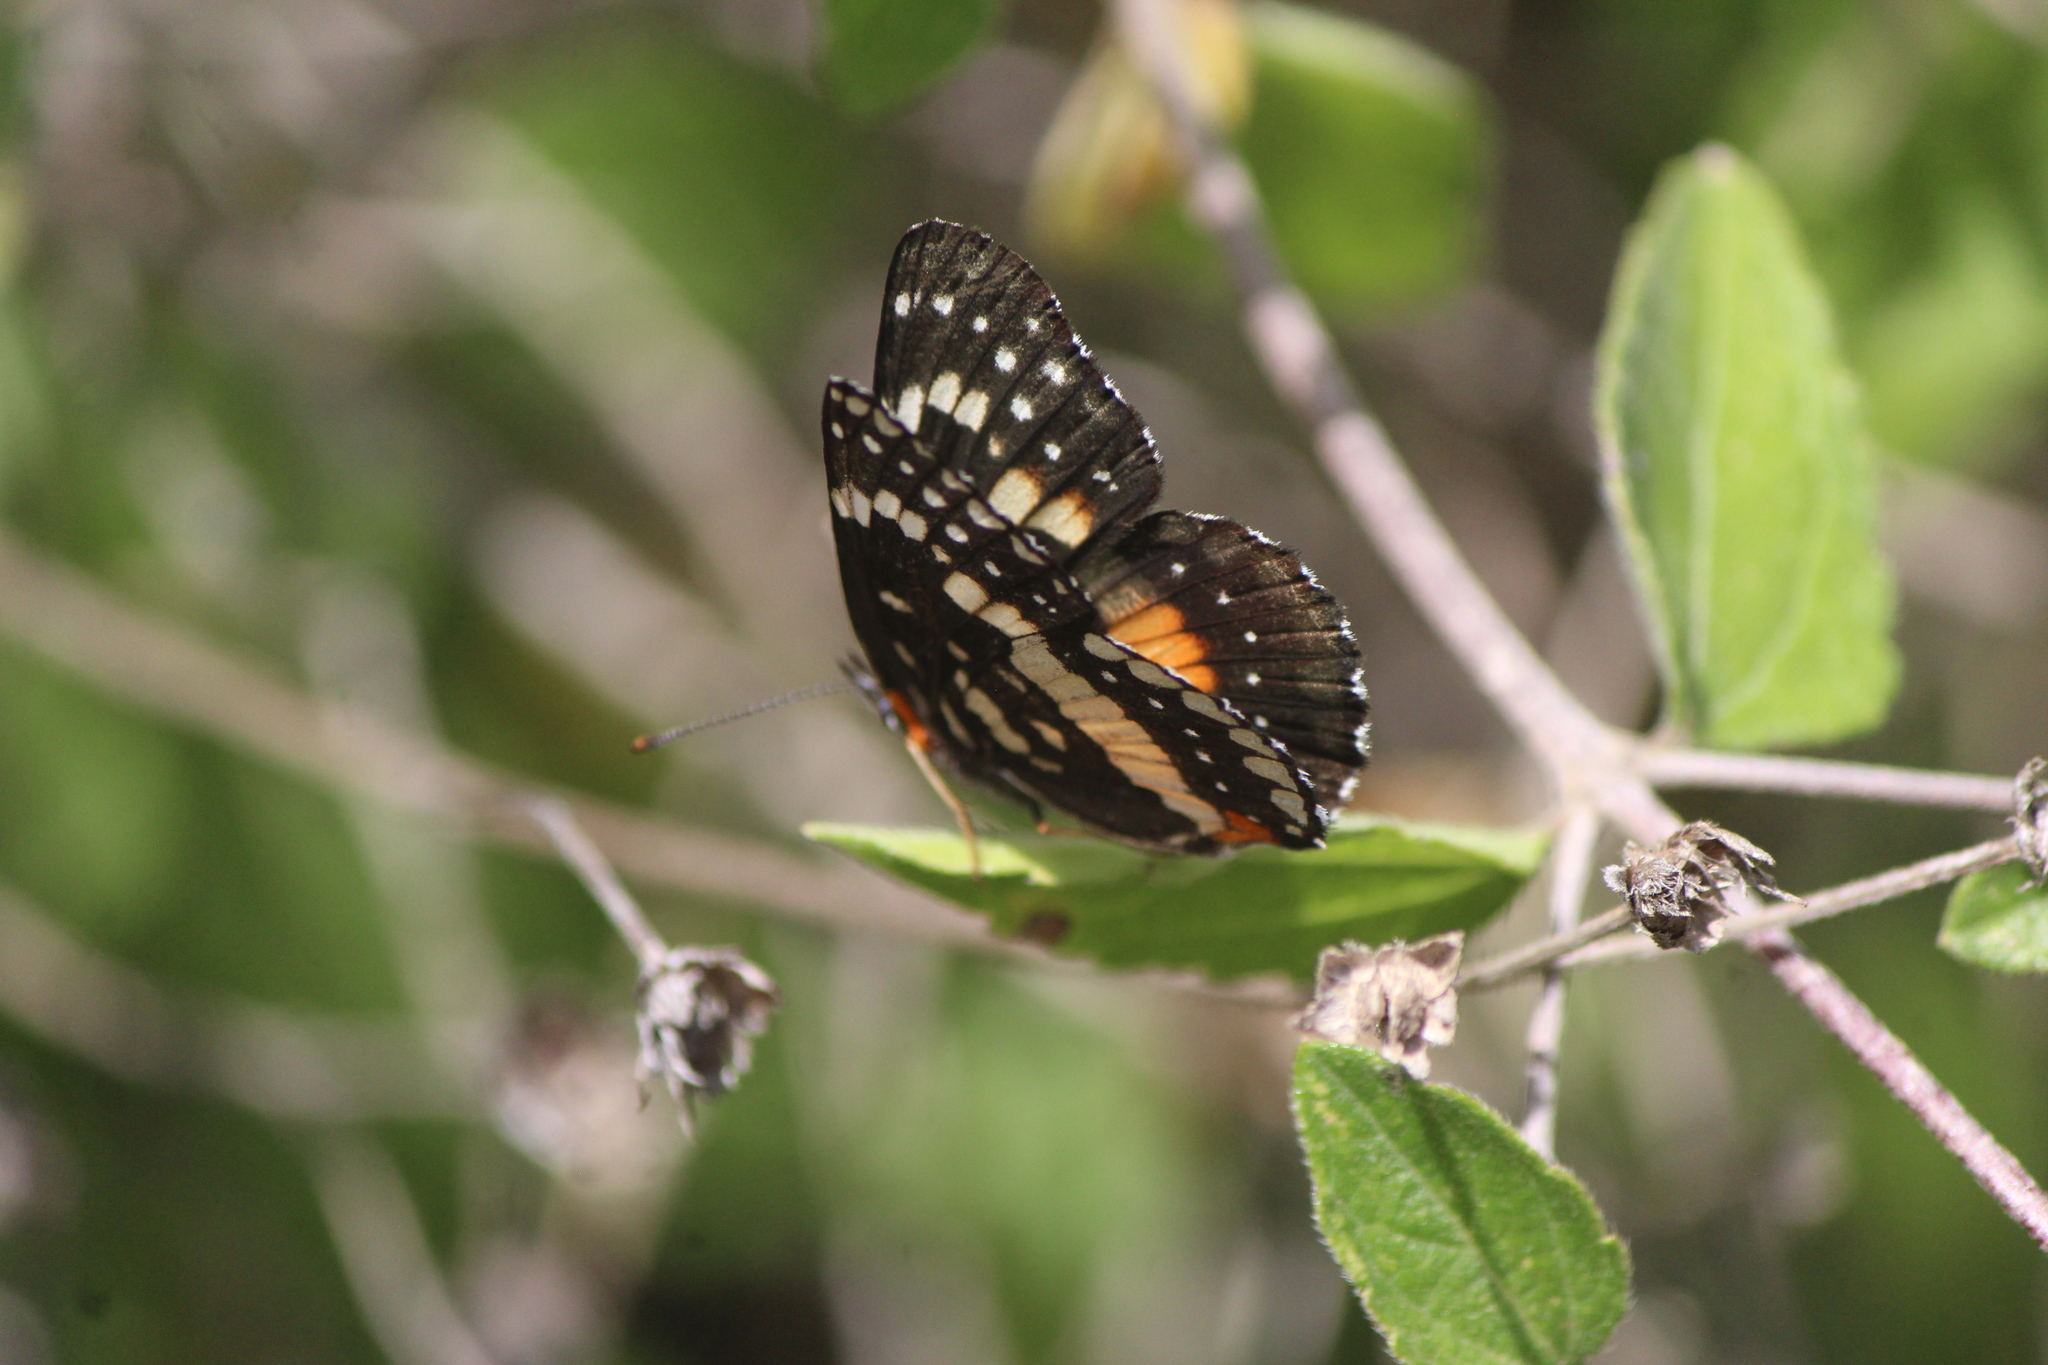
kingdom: Animalia
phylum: Arthropoda
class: Insecta
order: Lepidoptera
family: Nymphalidae
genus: Chlosyne
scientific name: Chlosyne lacinia
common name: Bordered patch
